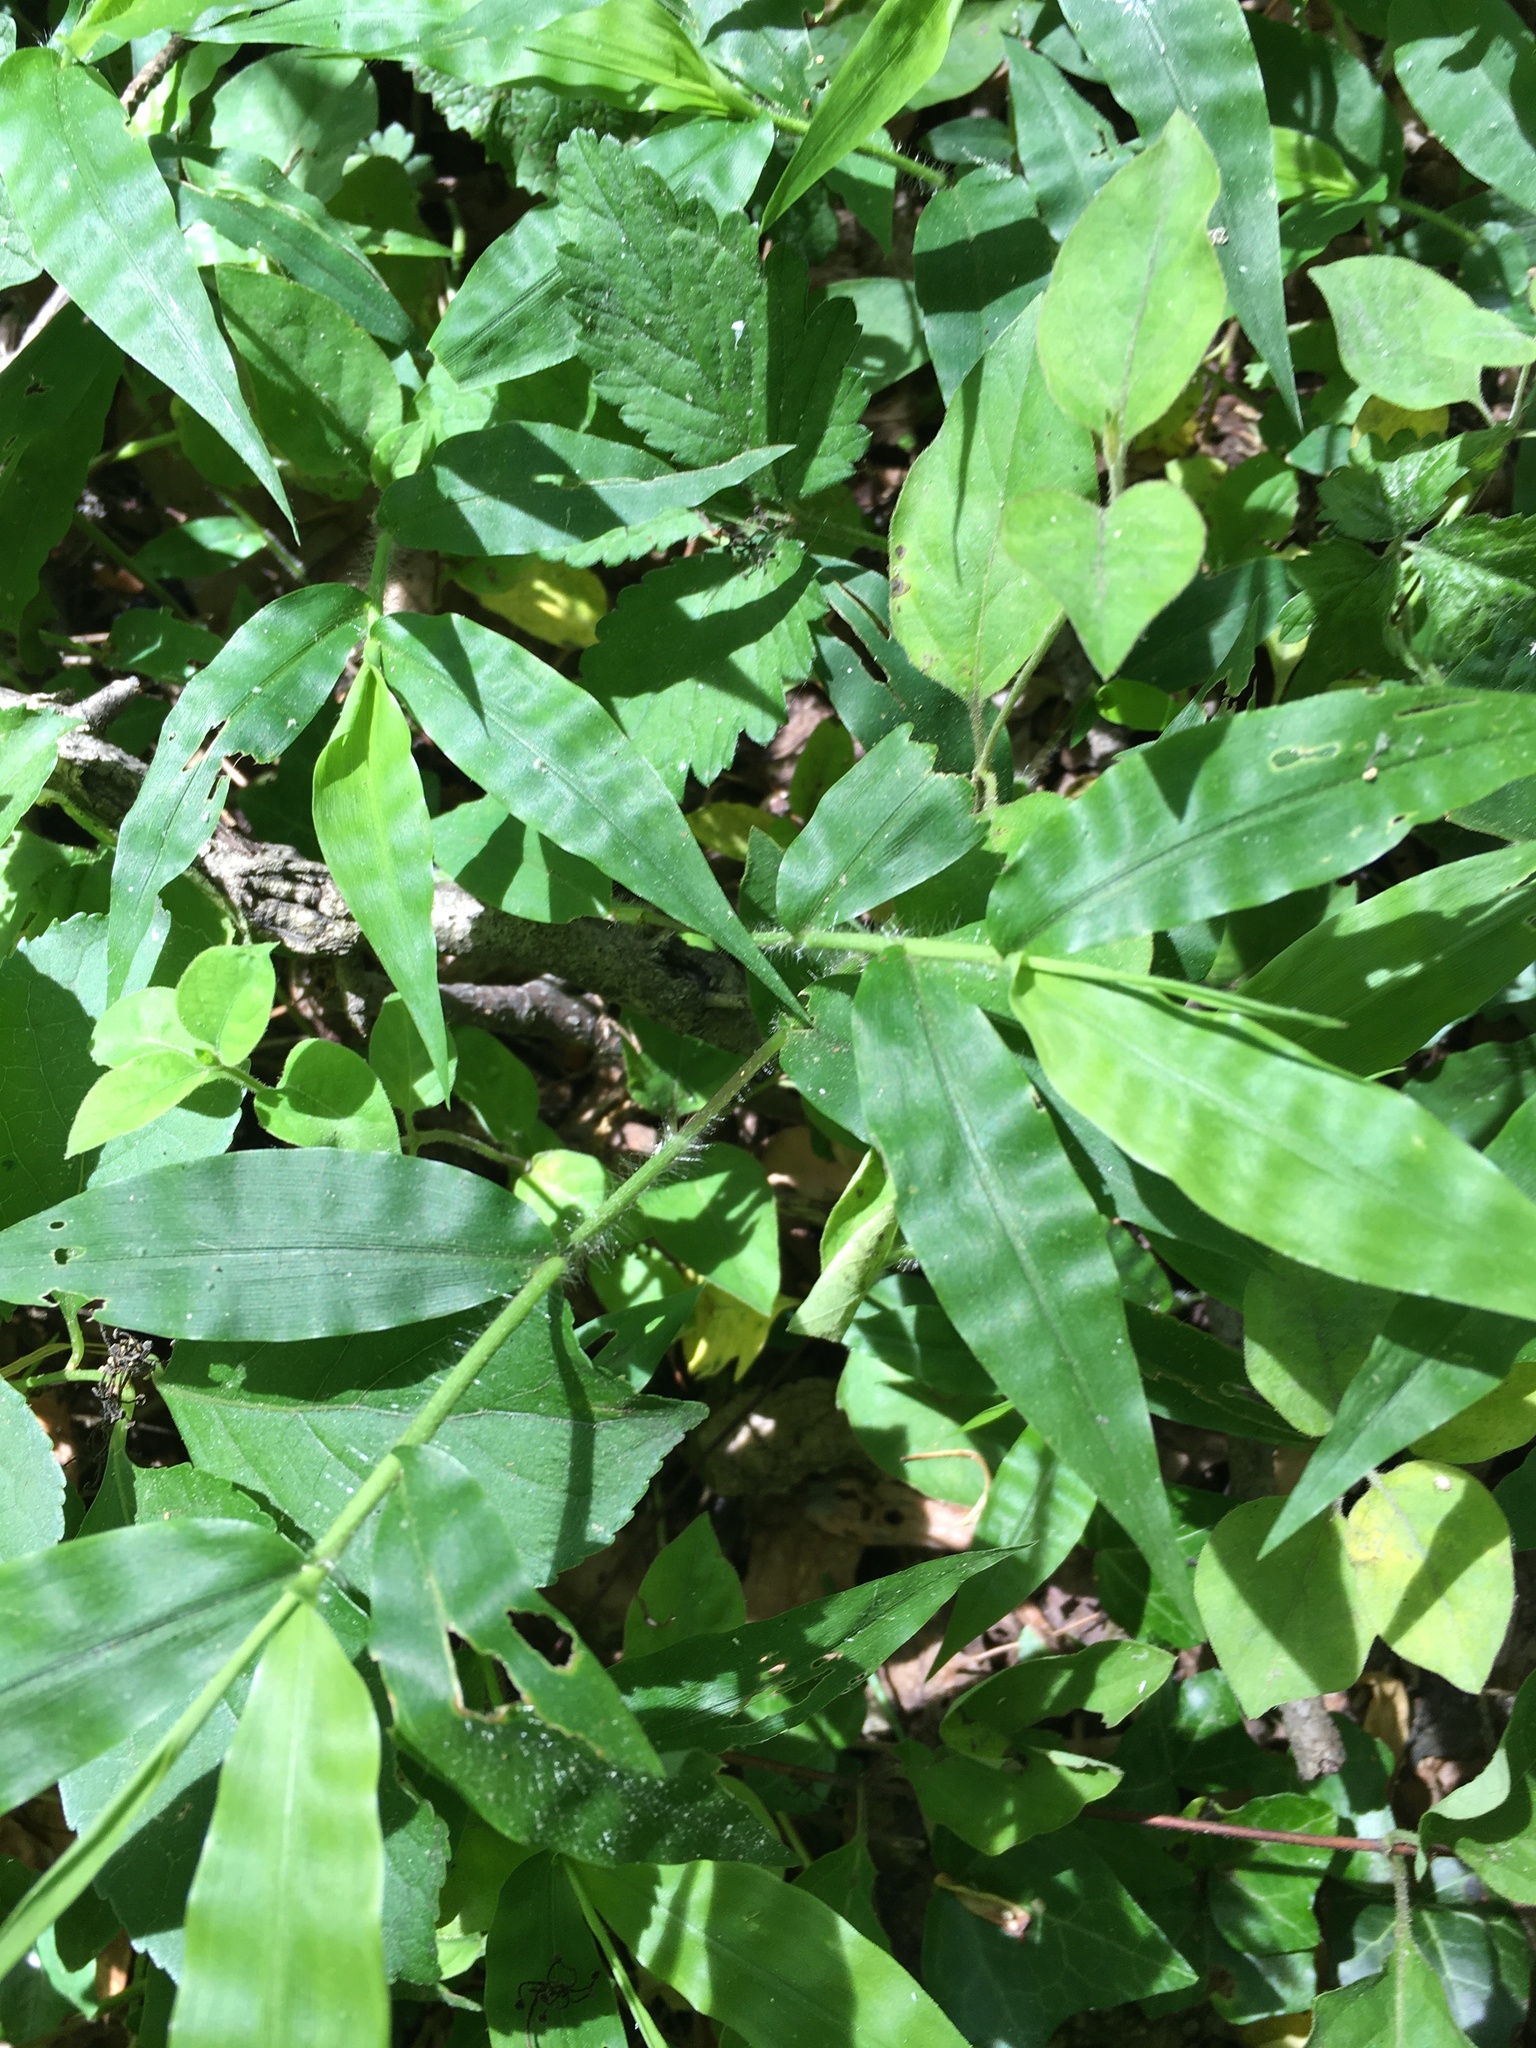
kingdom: Plantae
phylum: Tracheophyta
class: Liliopsida
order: Poales
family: Poaceae
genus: Oplismenus
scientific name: Oplismenus undulatifolius
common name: Wavyleaf basketgrass
